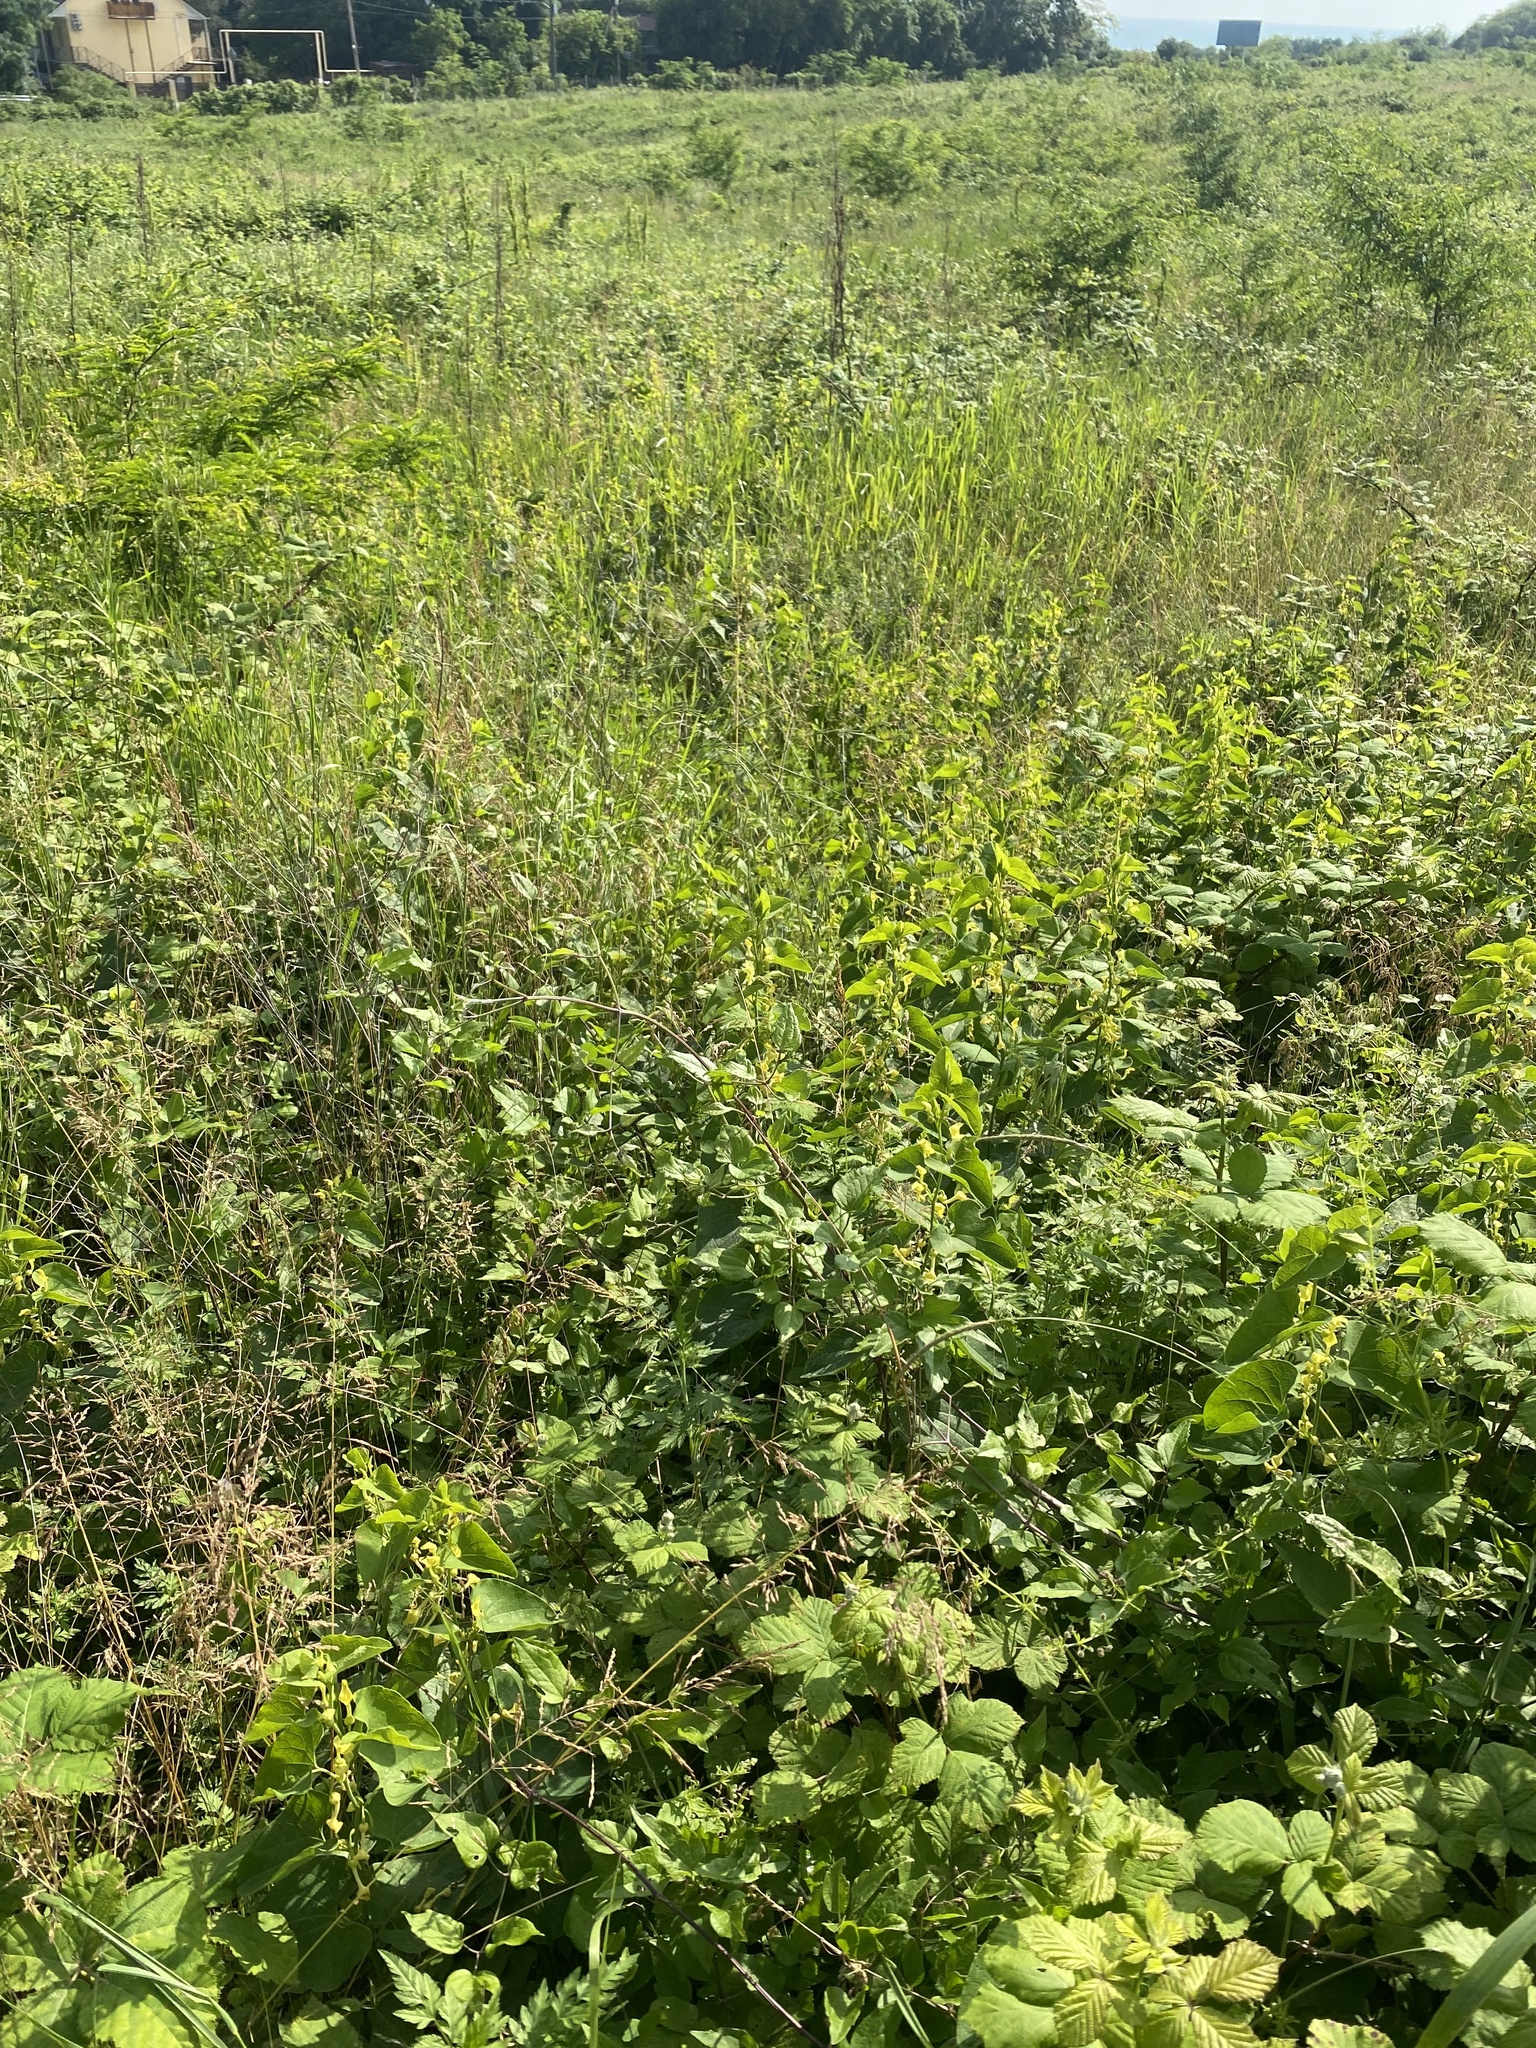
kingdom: Plantae
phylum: Tracheophyta
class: Magnoliopsida
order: Piperales
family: Aristolochiaceae
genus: Aristolochia
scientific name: Aristolochia clematitis
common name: Birthwort
